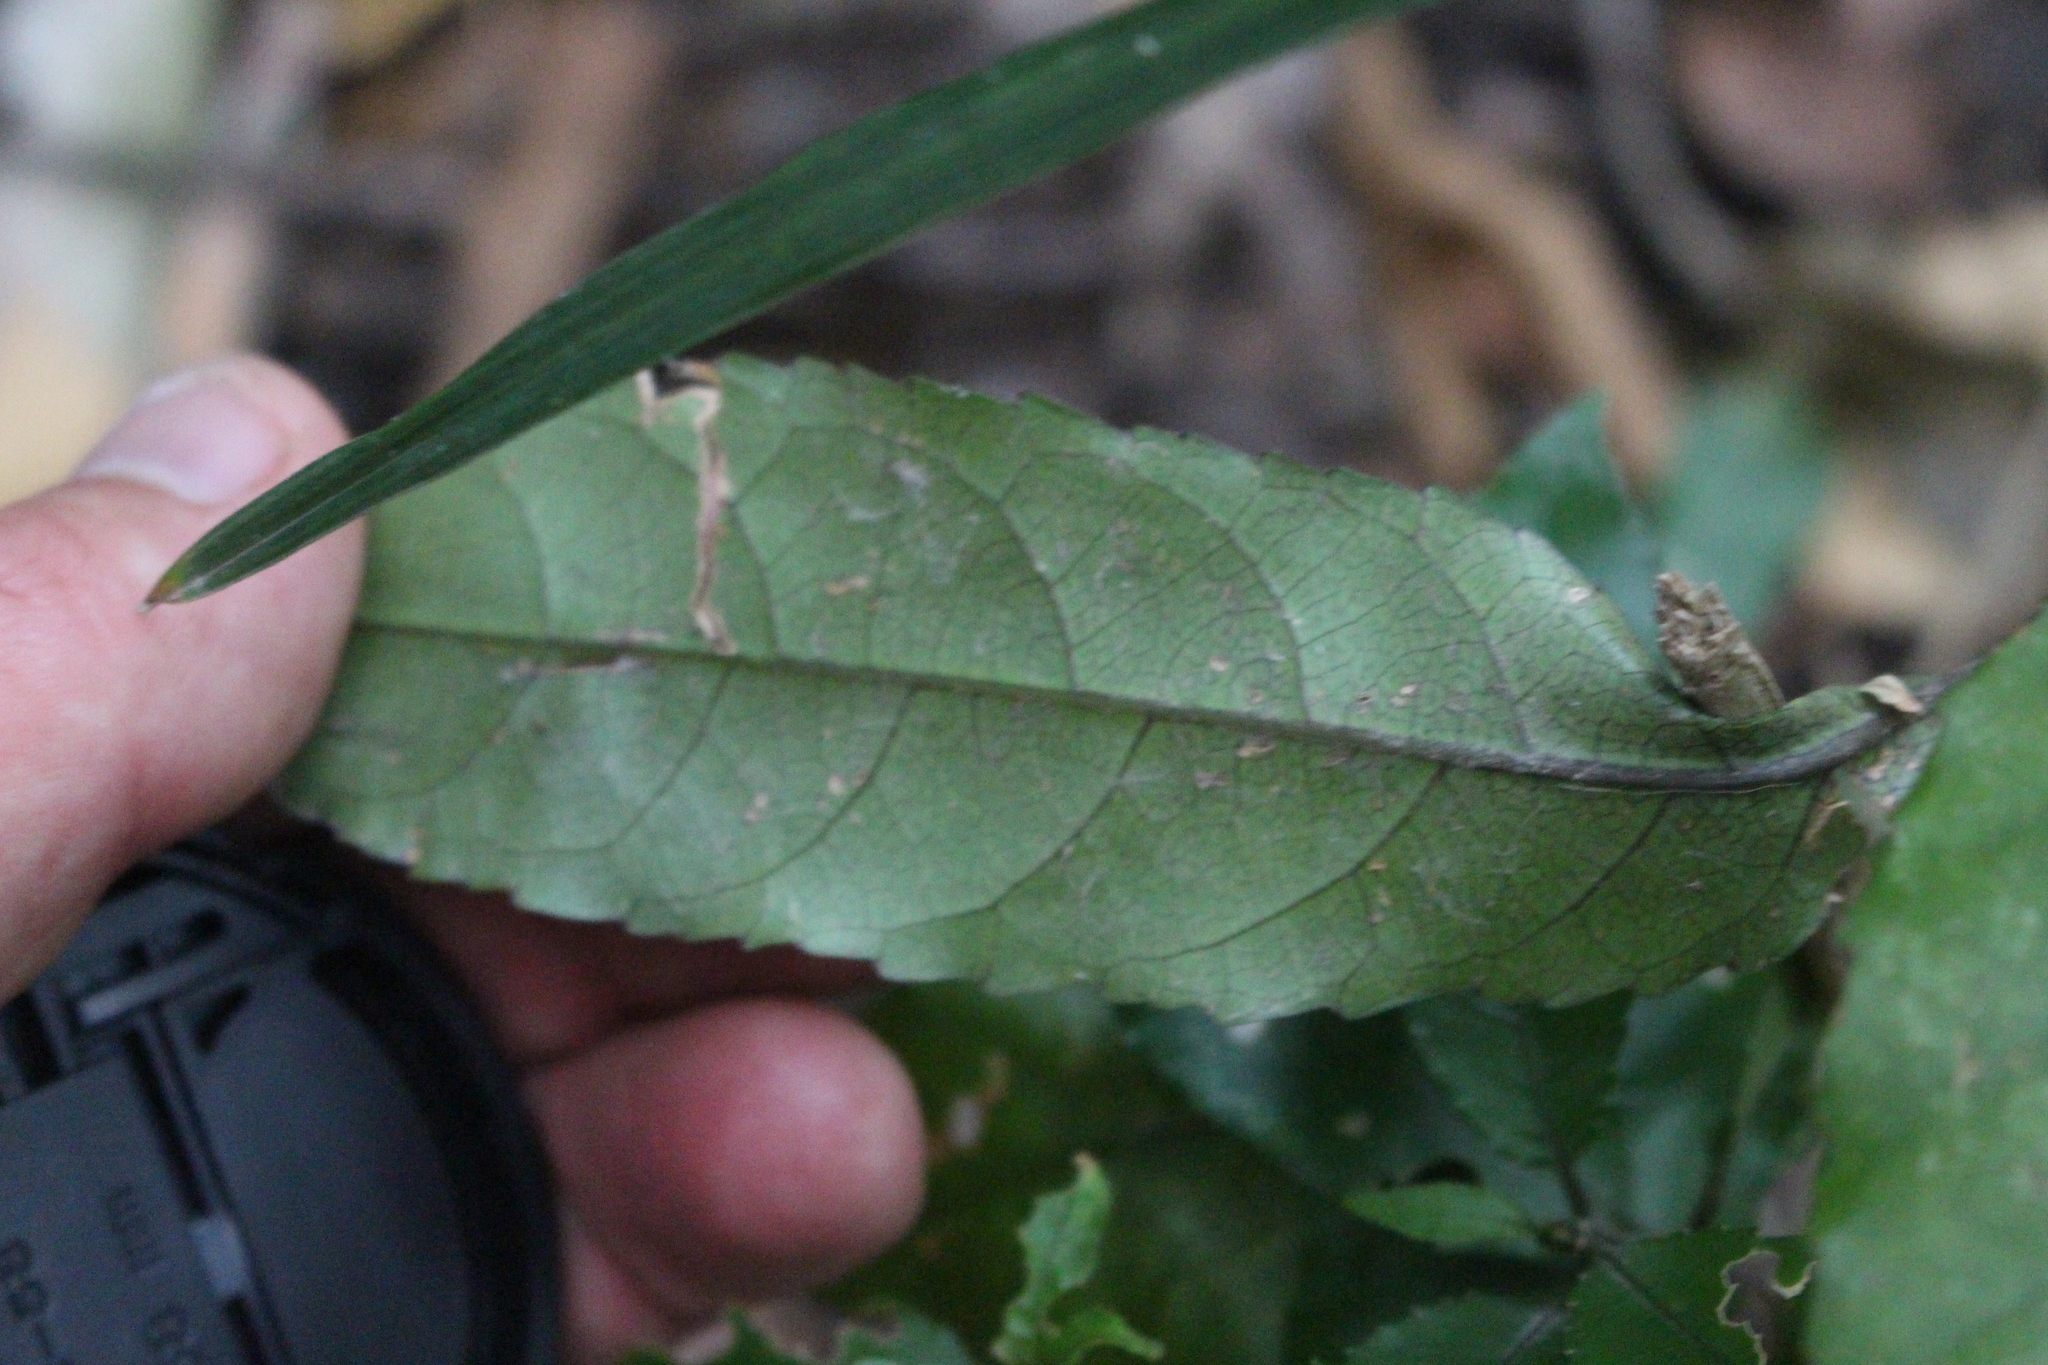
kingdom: Plantae
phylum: Tracheophyta
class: Magnoliopsida
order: Malpighiales
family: Violaceae
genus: Melicytus
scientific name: Melicytus ramiflorus
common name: Mahoe
